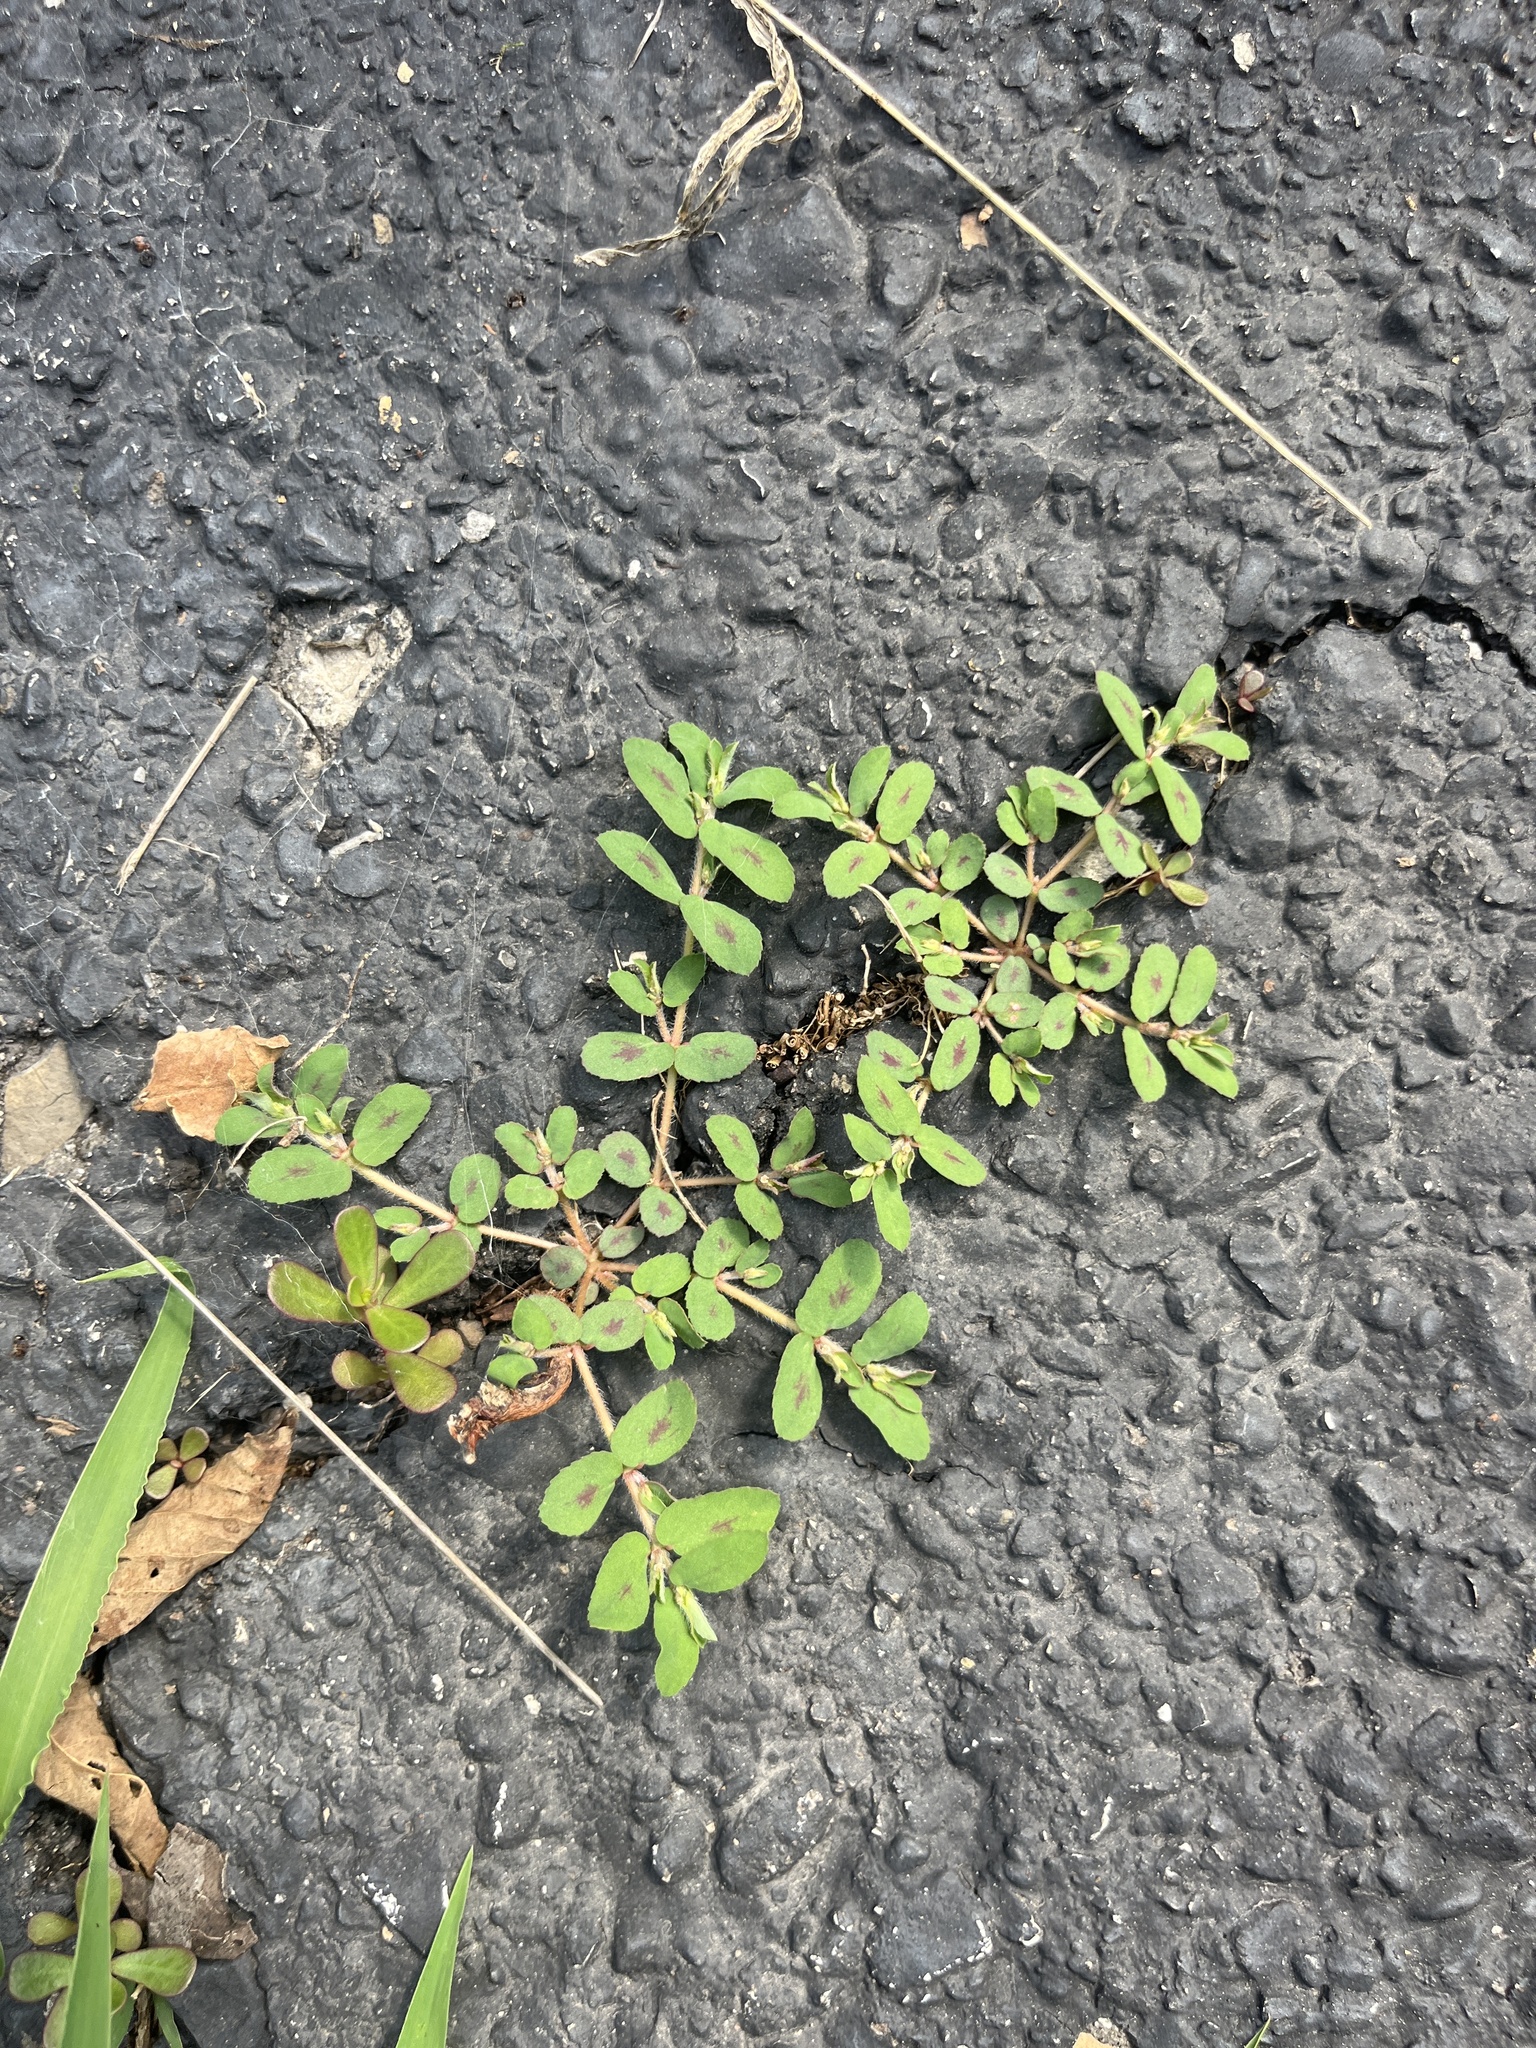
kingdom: Plantae
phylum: Tracheophyta
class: Magnoliopsida
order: Malpighiales
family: Euphorbiaceae
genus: Euphorbia
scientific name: Euphorbia maculata
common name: Spotted spurge
